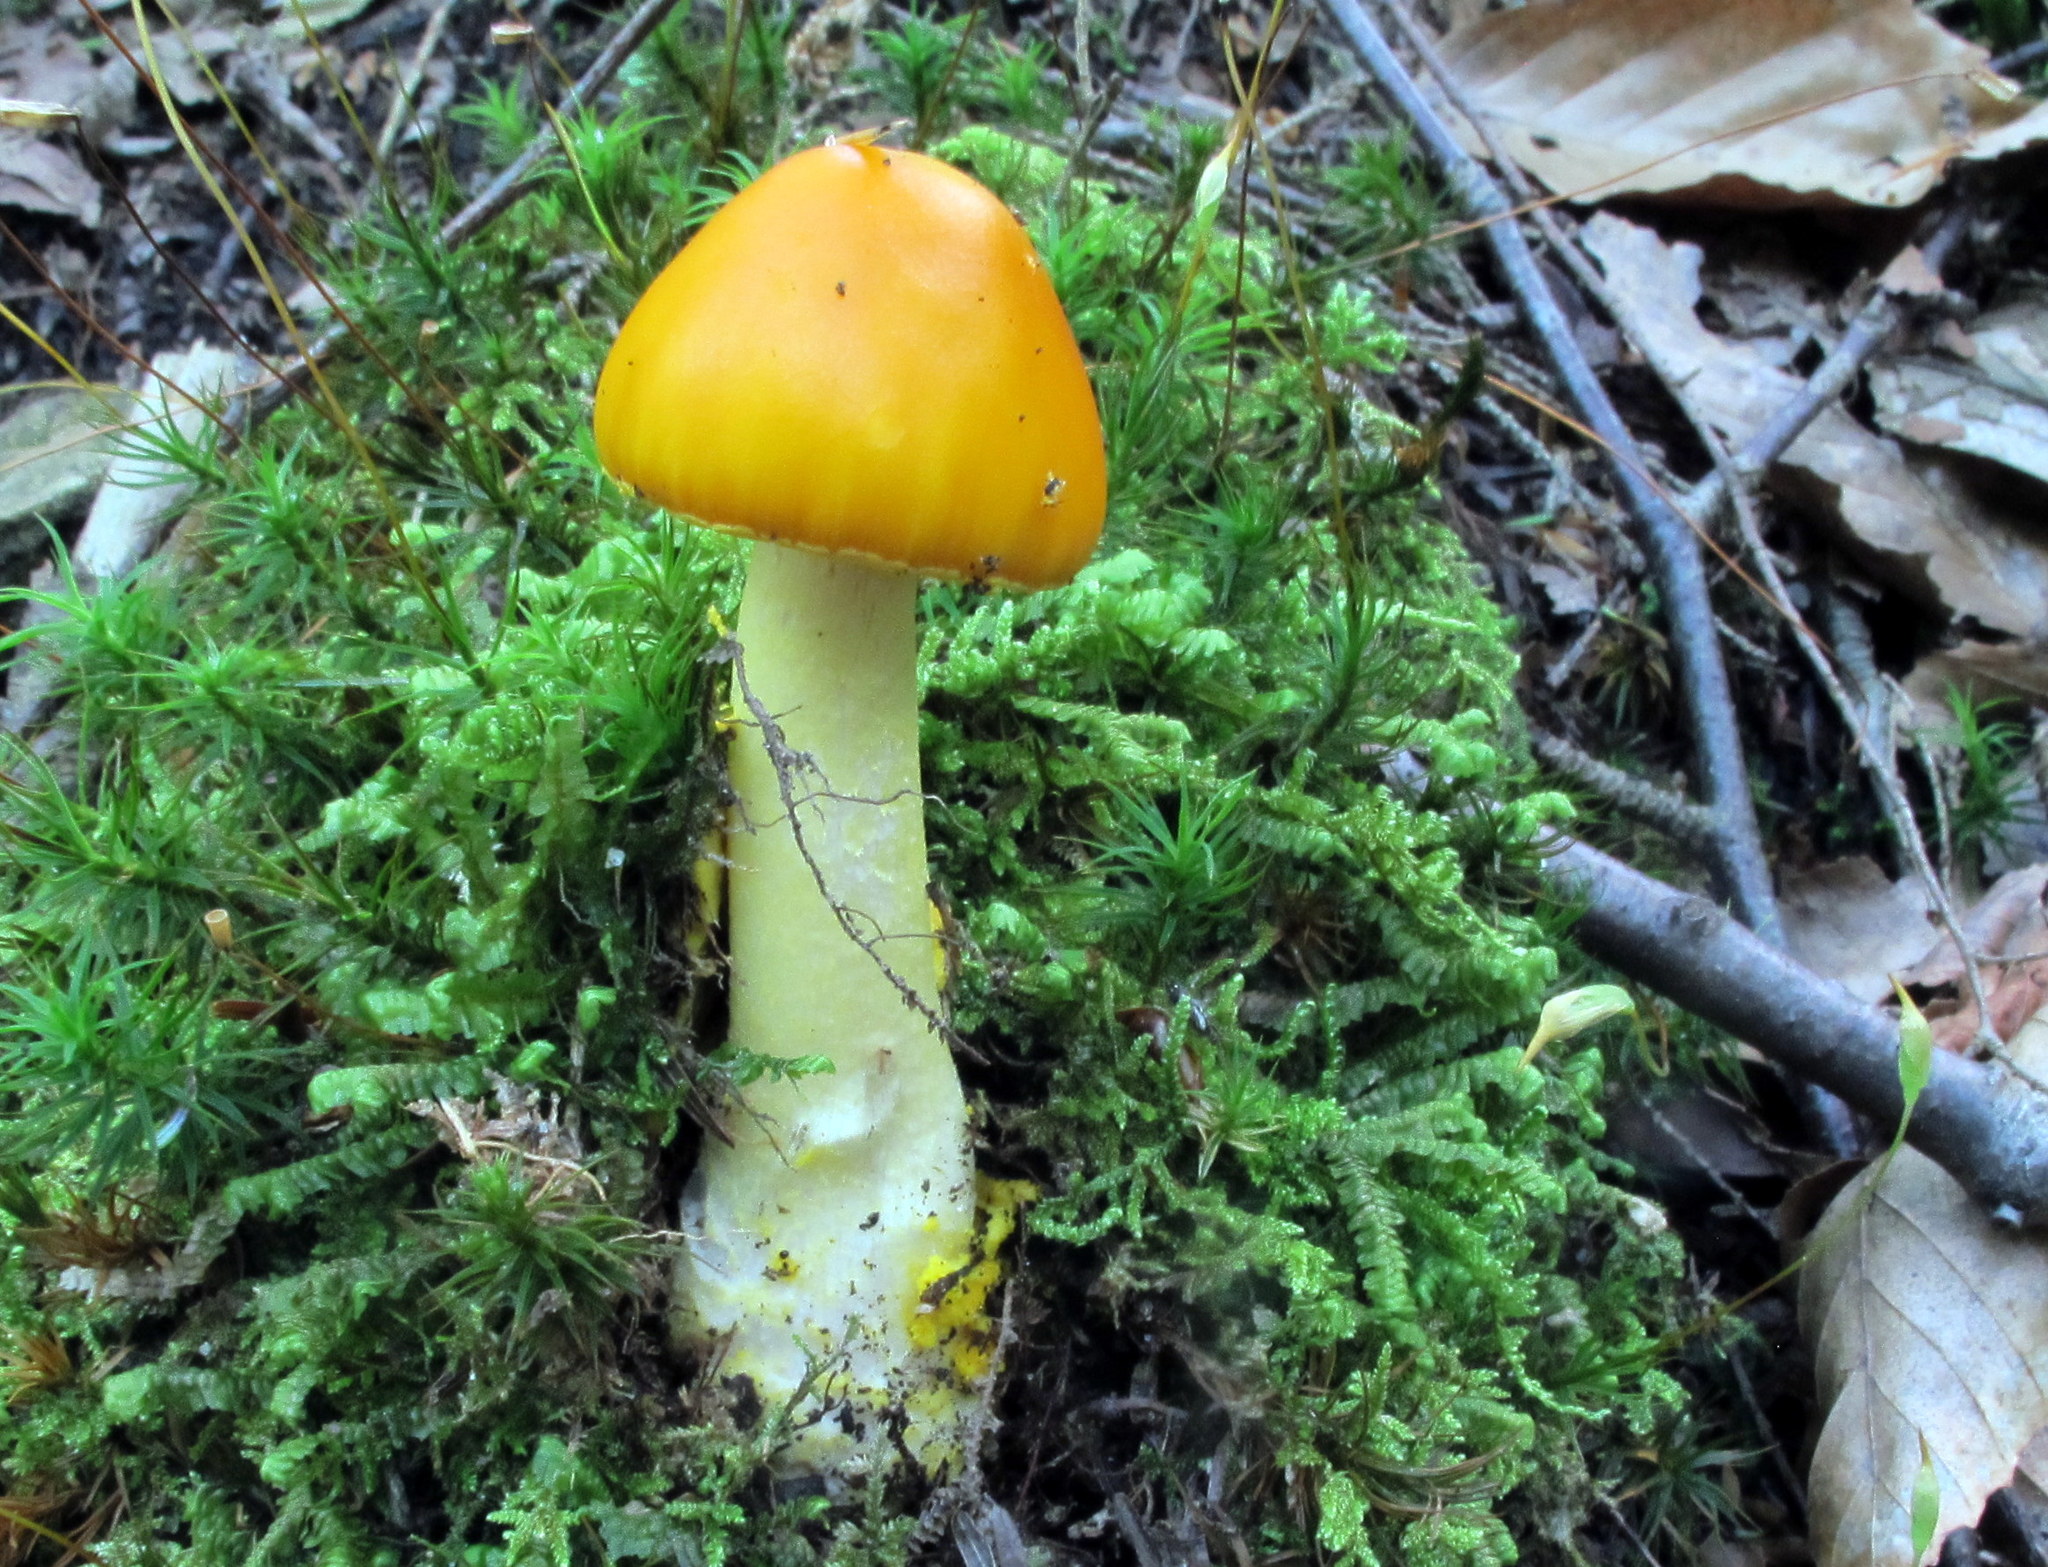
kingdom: Fungi
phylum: Basidiomycota
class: Agaricomycetes
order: Agaricales
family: Amanitaceae
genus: Amanita
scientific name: Amanita flavoconia
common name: Yellow patches
